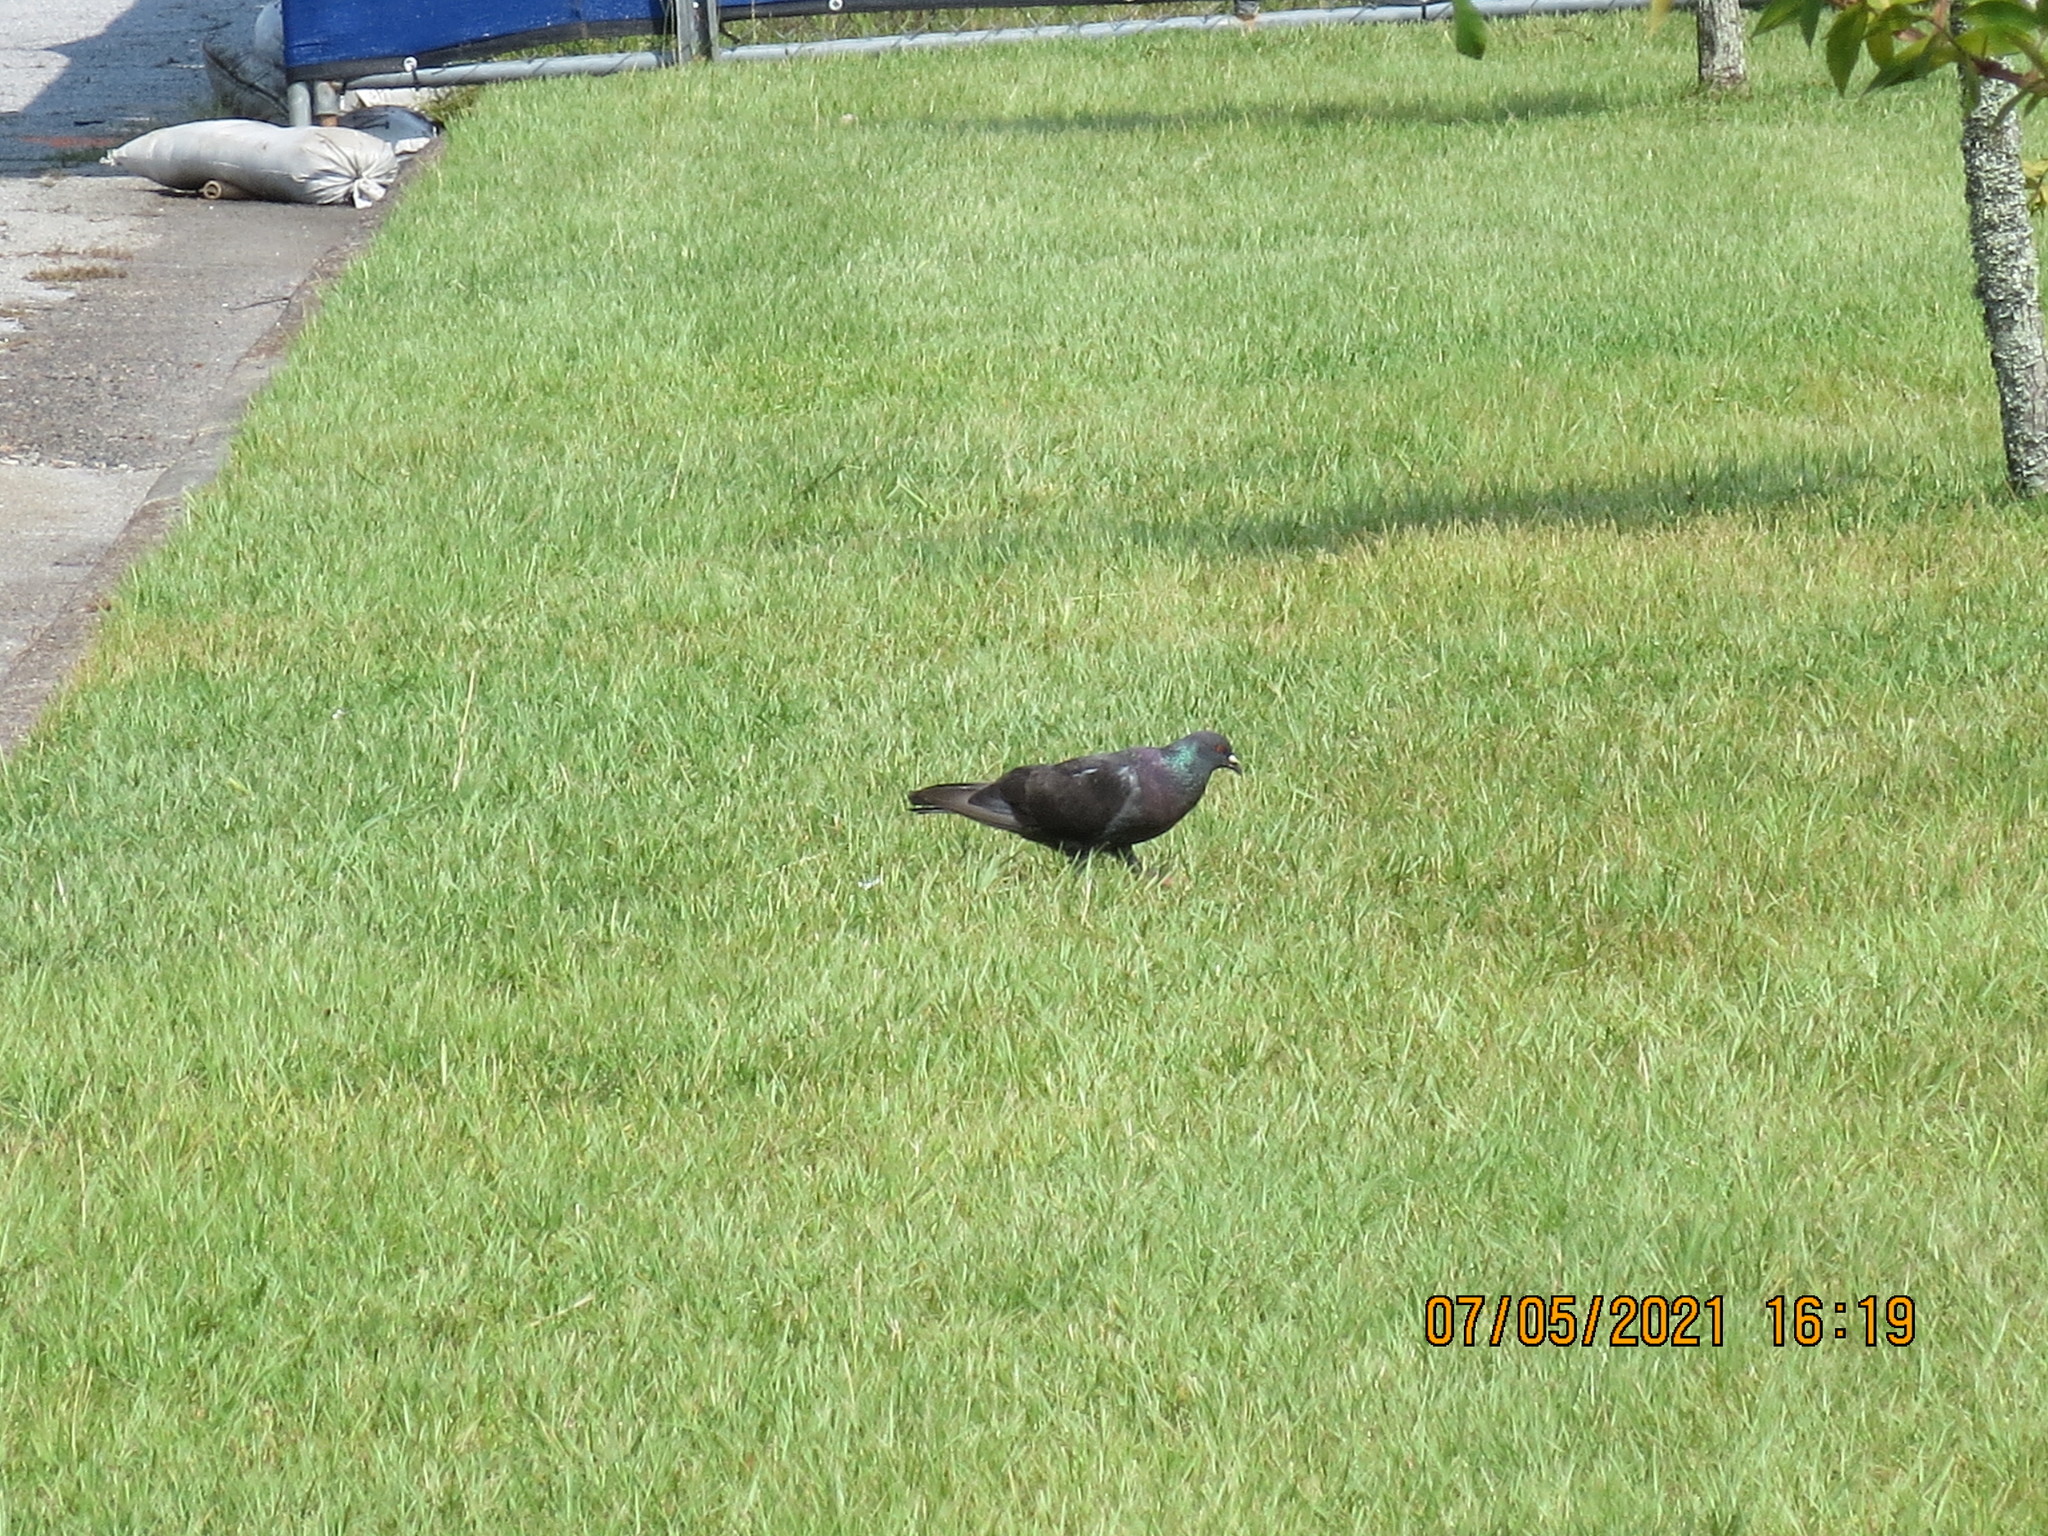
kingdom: Animalia
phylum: Chordata
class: Aves
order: Columbiformes
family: Columbidae
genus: Columba
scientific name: Columba livia
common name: Rock pigeon
